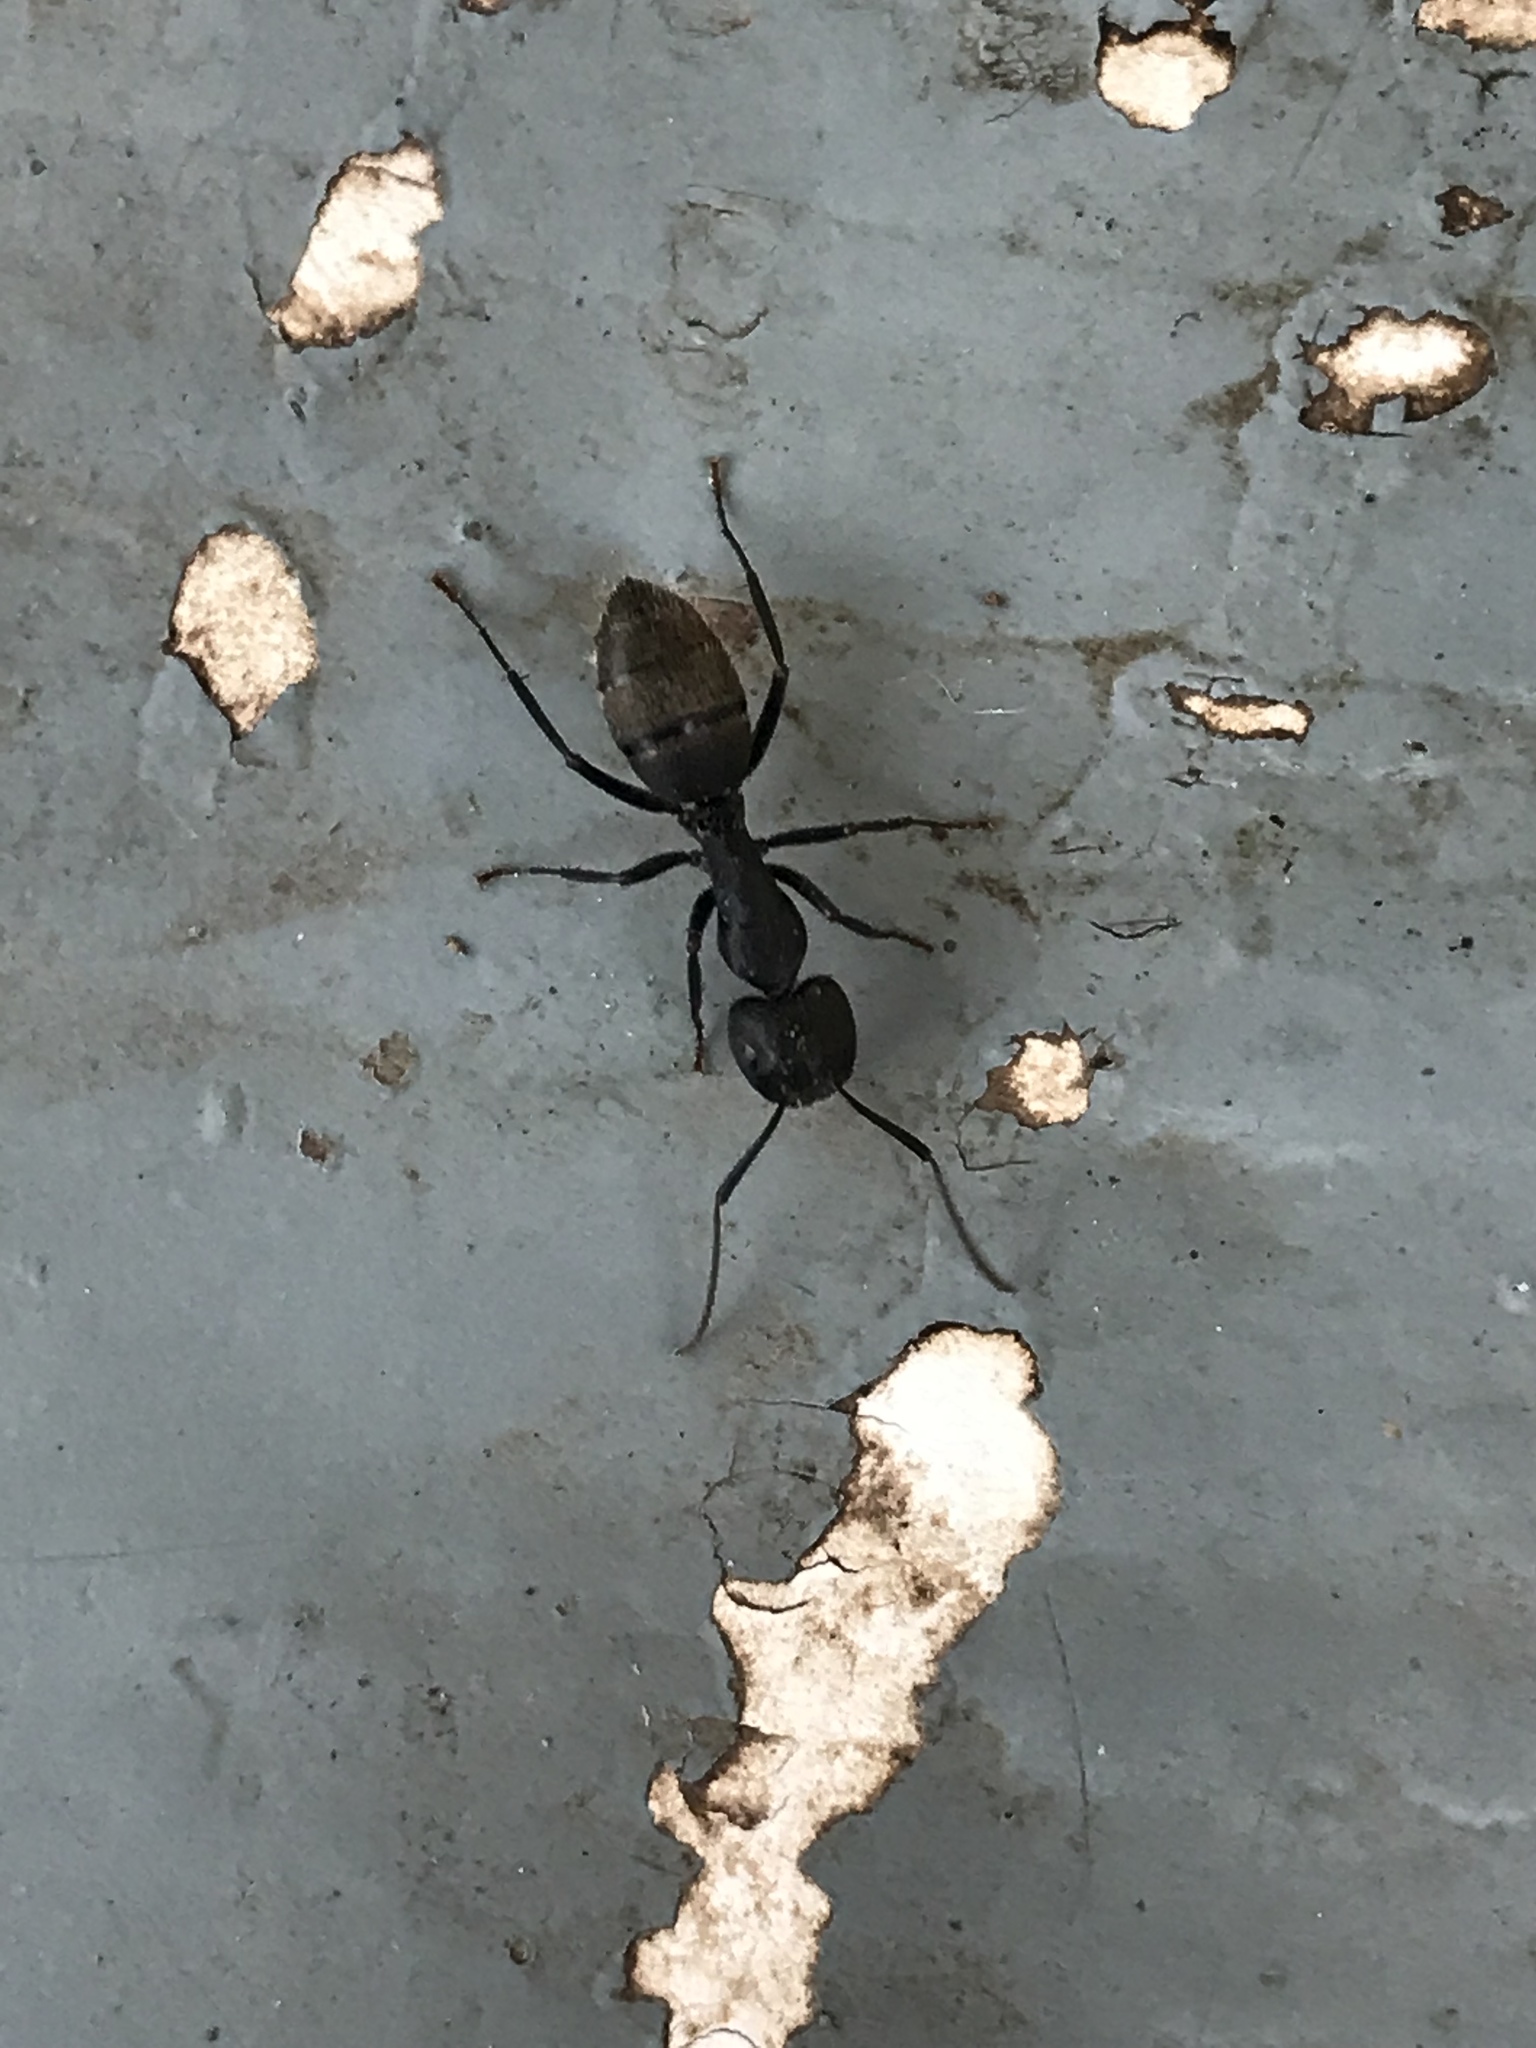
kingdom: Animalia
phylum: Arthropoda
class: Insecta
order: Hymenoptera
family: Formicidae
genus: Camponotus
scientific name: Camponotus pennsylvanicus
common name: Black carpenter ant
